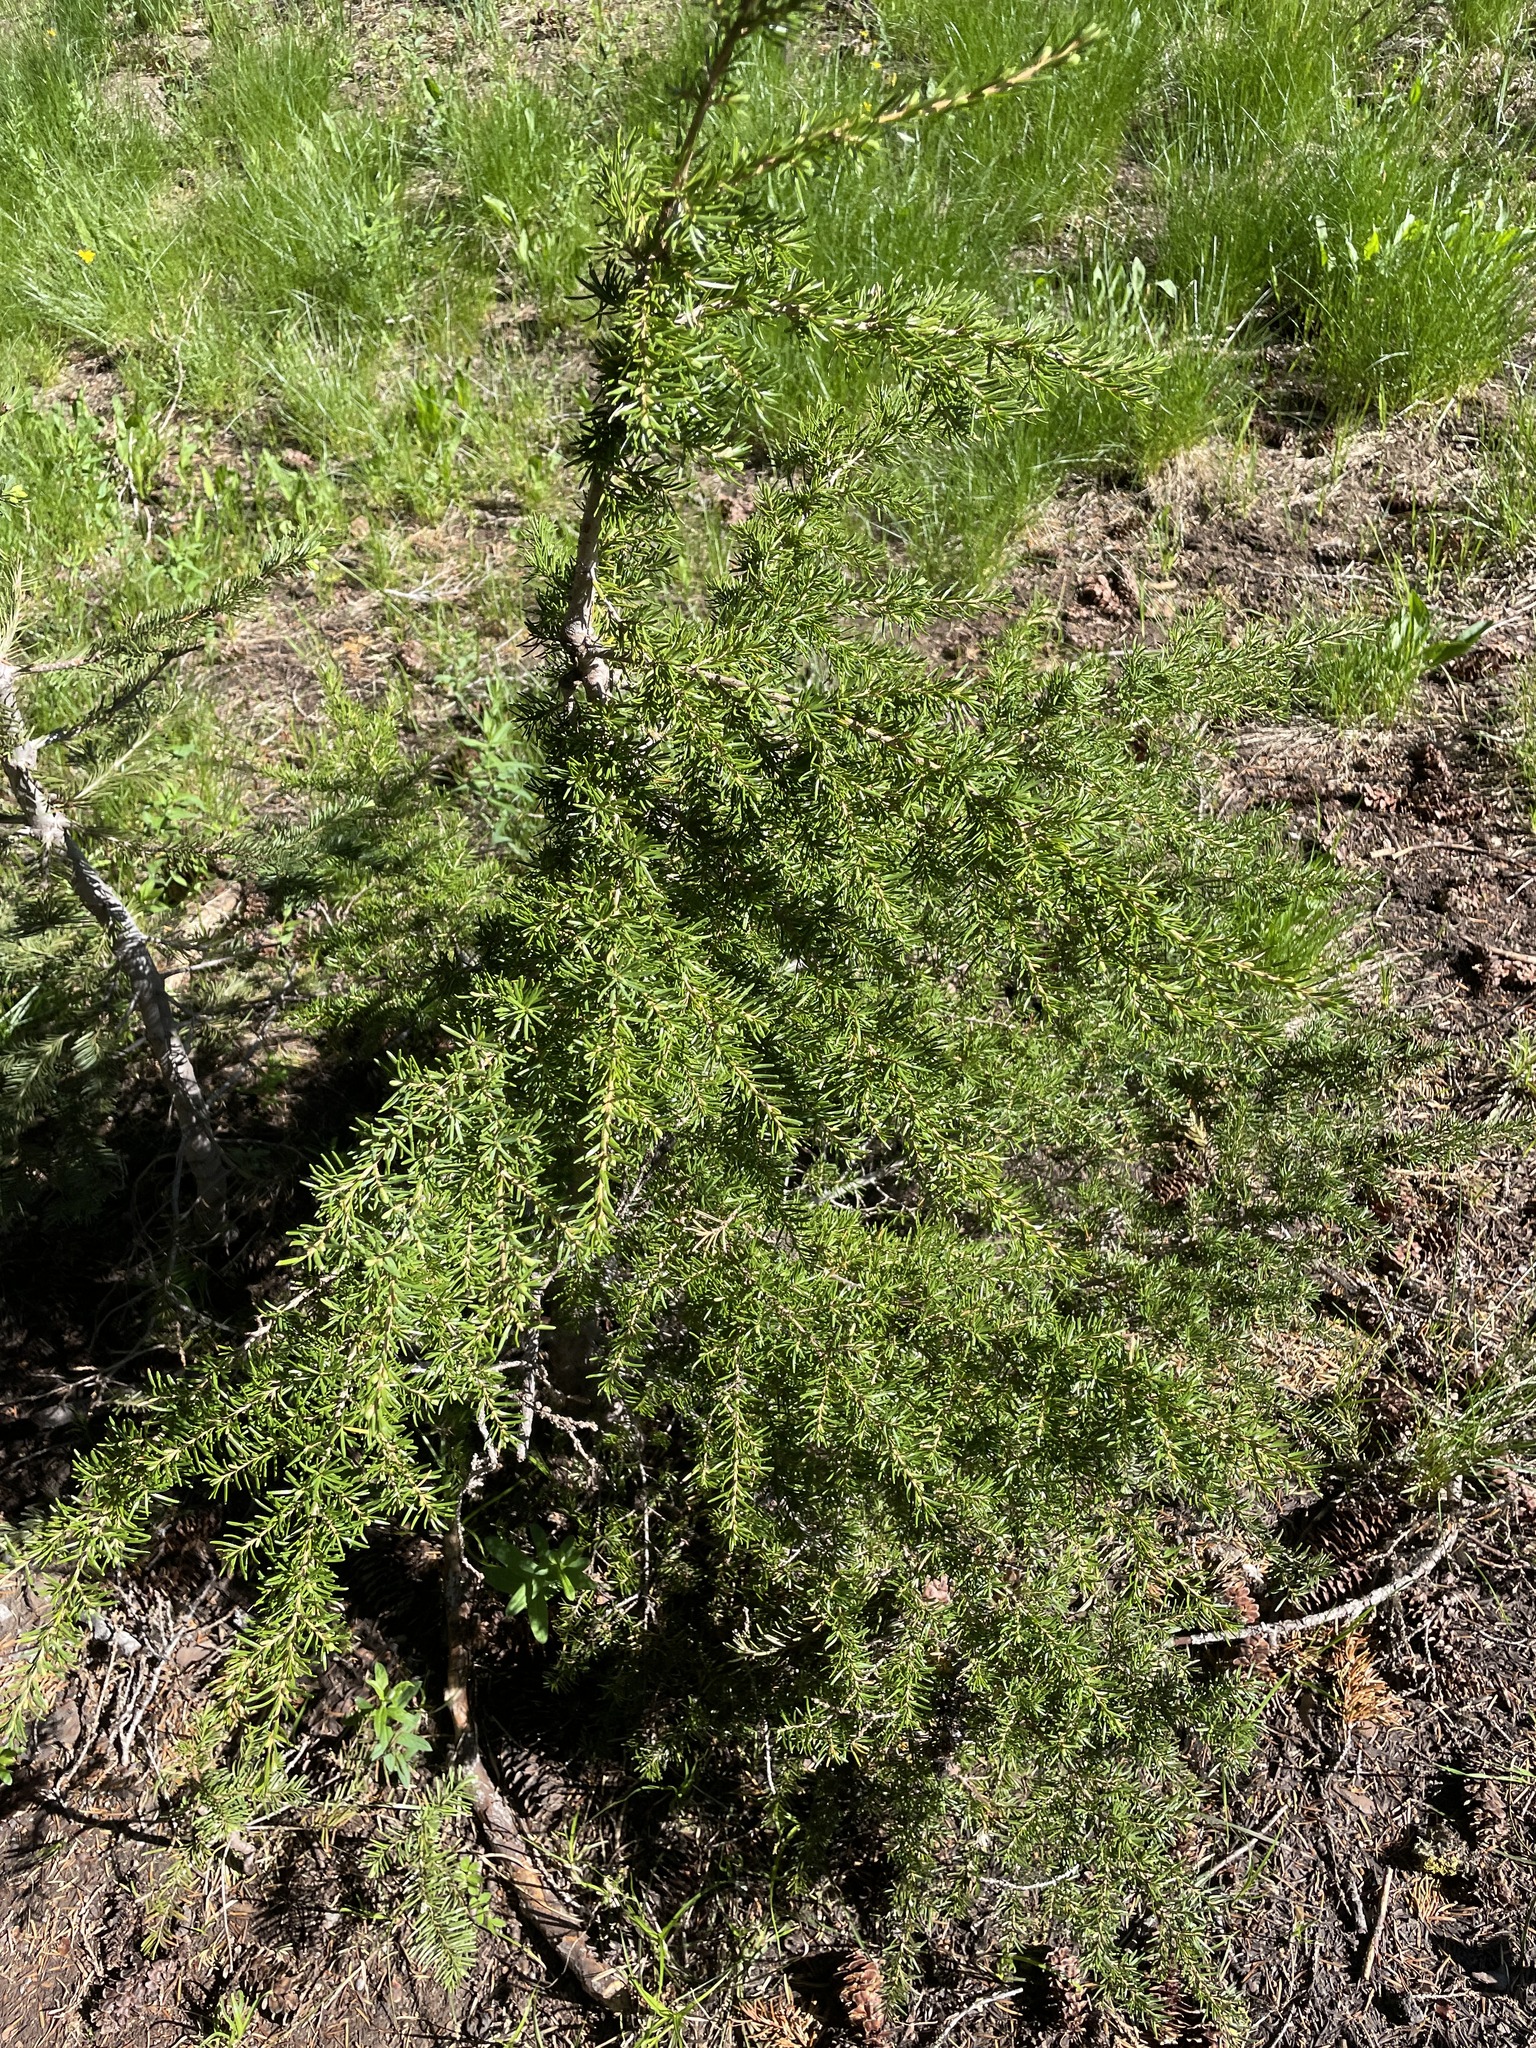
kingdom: Plantae
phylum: Tracheophyta
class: Pinopsida
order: Pinales
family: Pinaceae
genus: Tsuga
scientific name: Tsuga mertensiana
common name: Mountain hemlock
